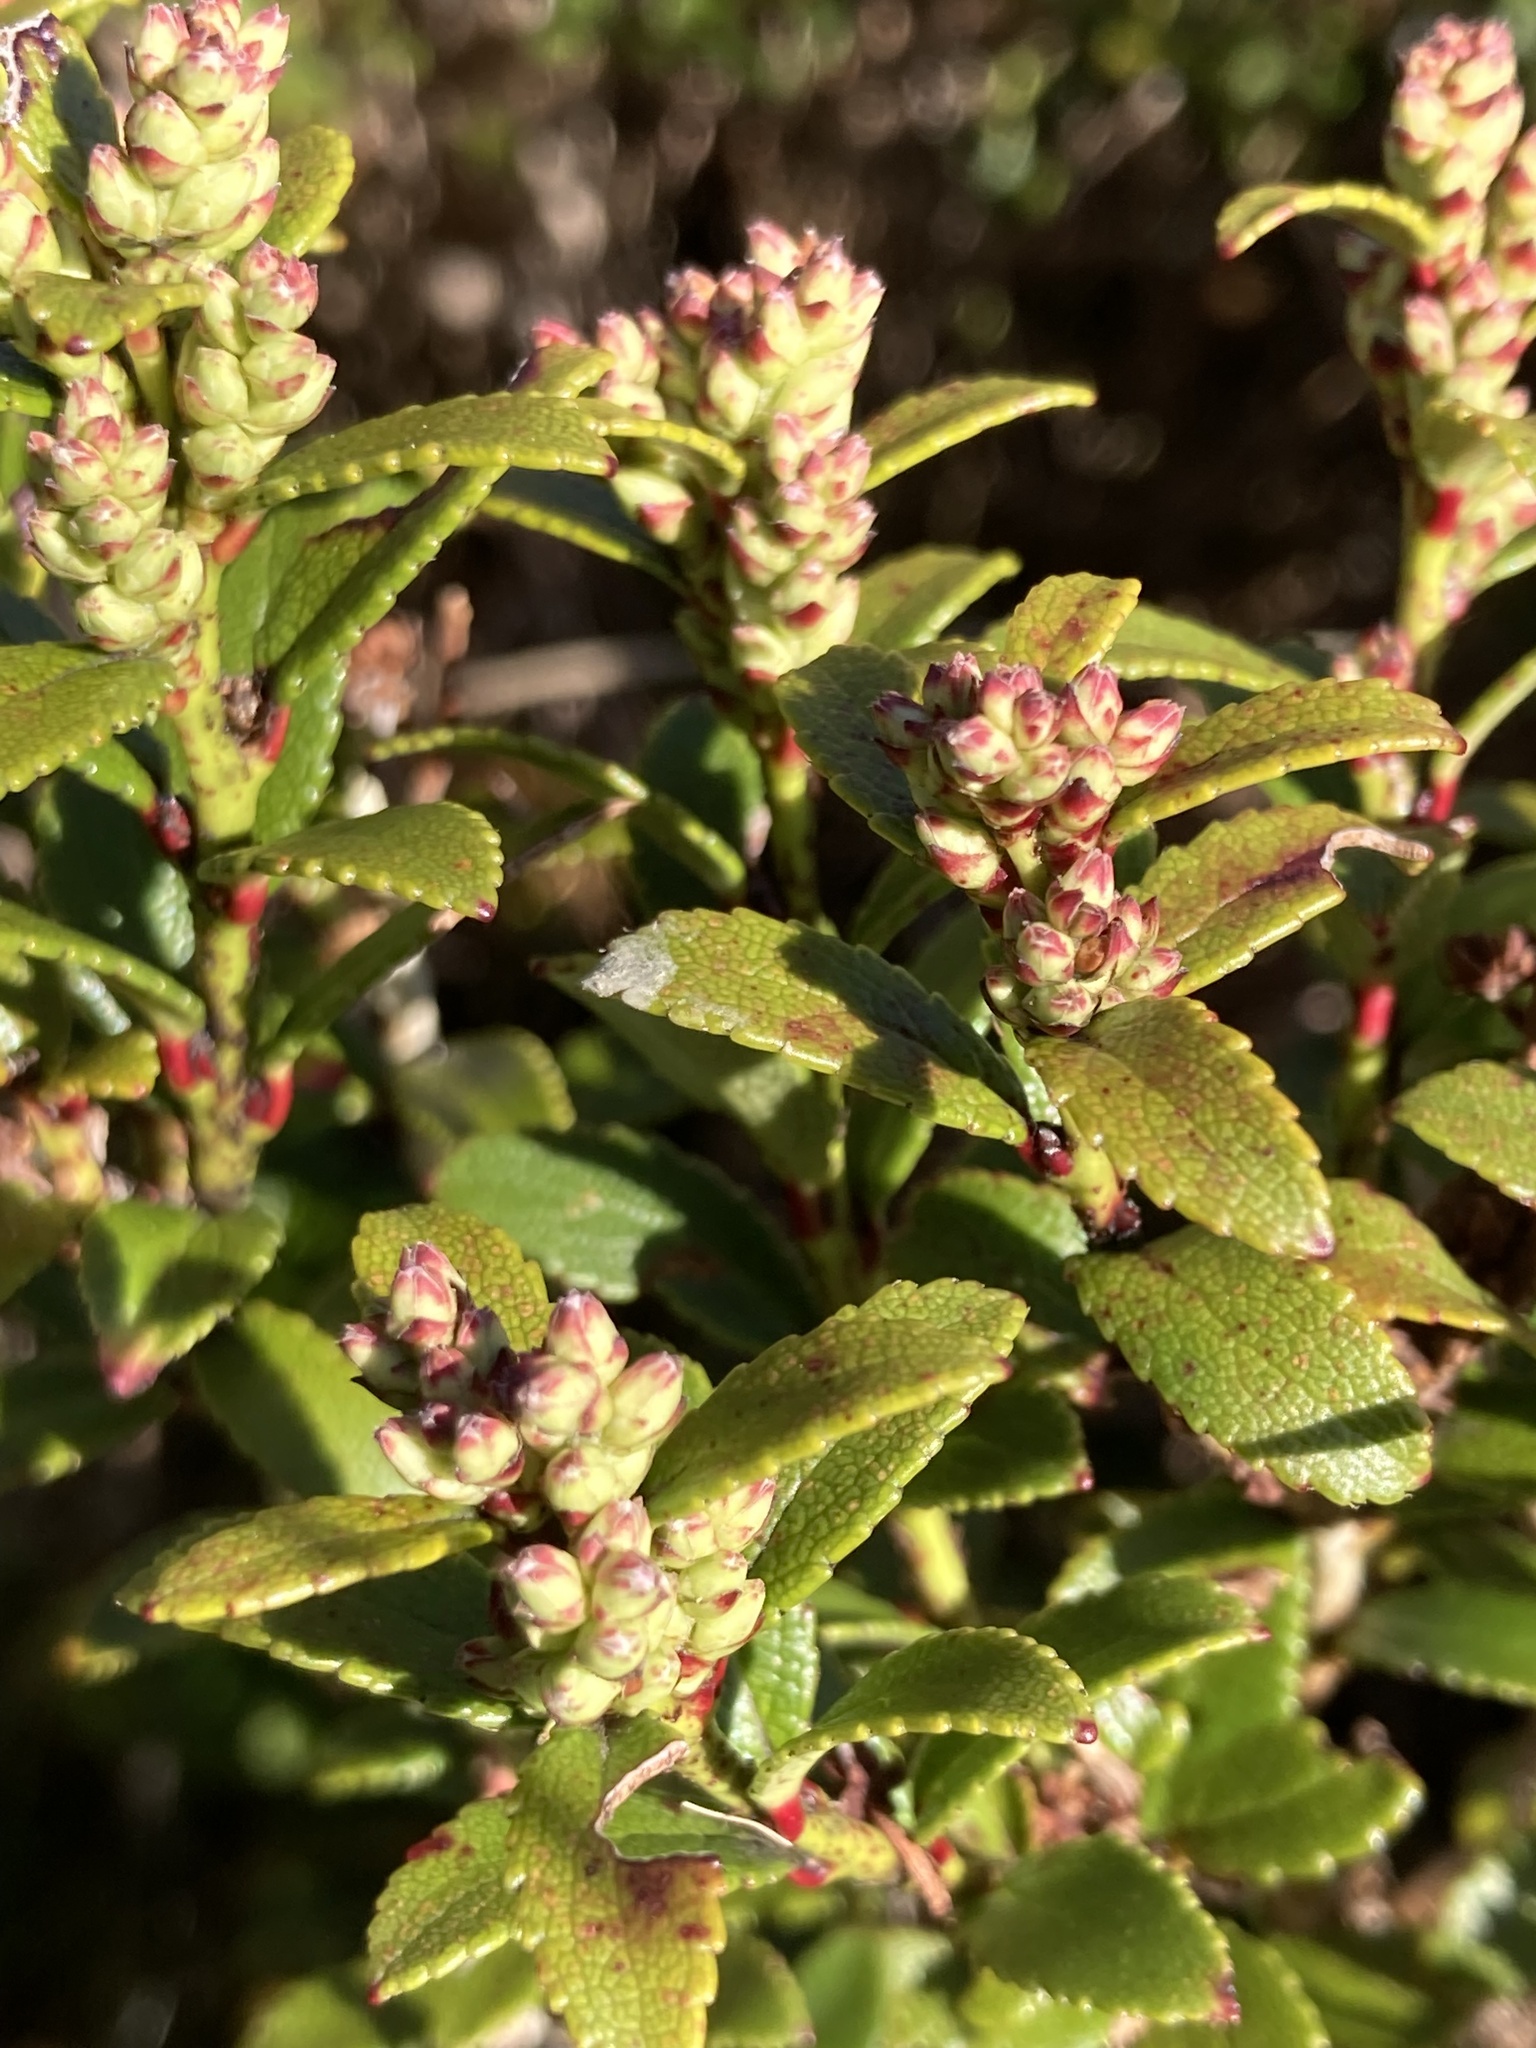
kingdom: Plantae
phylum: Tracheophyta
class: Magnoliopsida
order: Ericales
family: Ericaceae
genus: Gaultheria
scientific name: Gaultheria crassa
